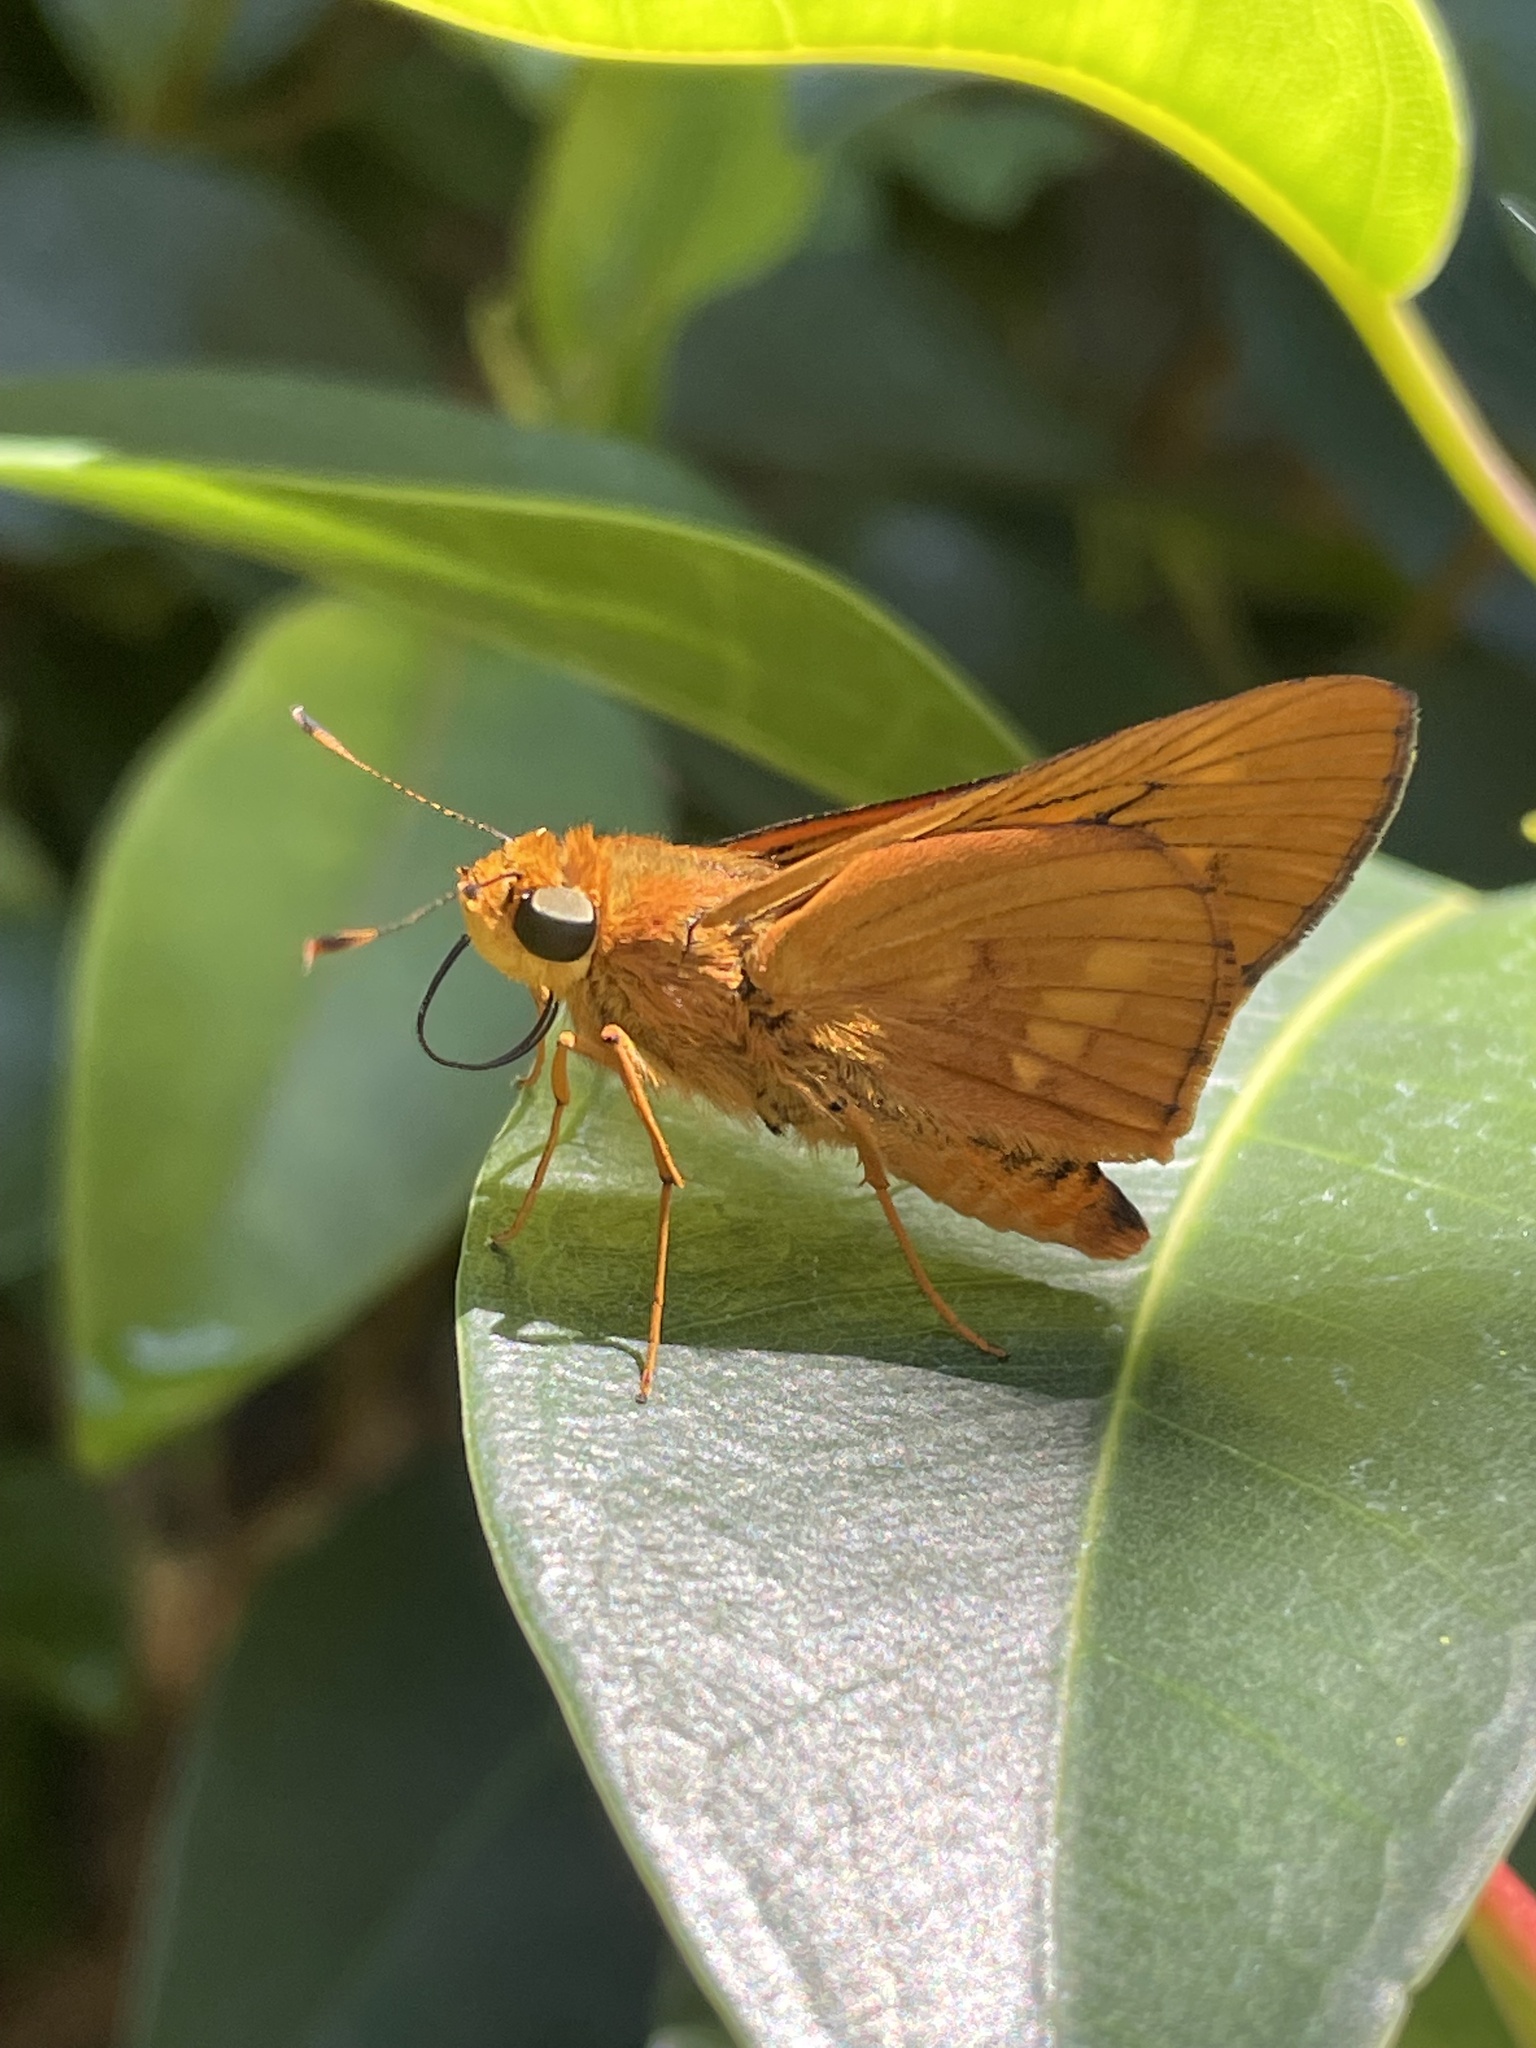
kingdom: Animalia
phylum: Arthropoda
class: Insecta
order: Lepidoptera
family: Hesperiidae
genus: Cephrenes
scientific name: Cephrenes augiades
